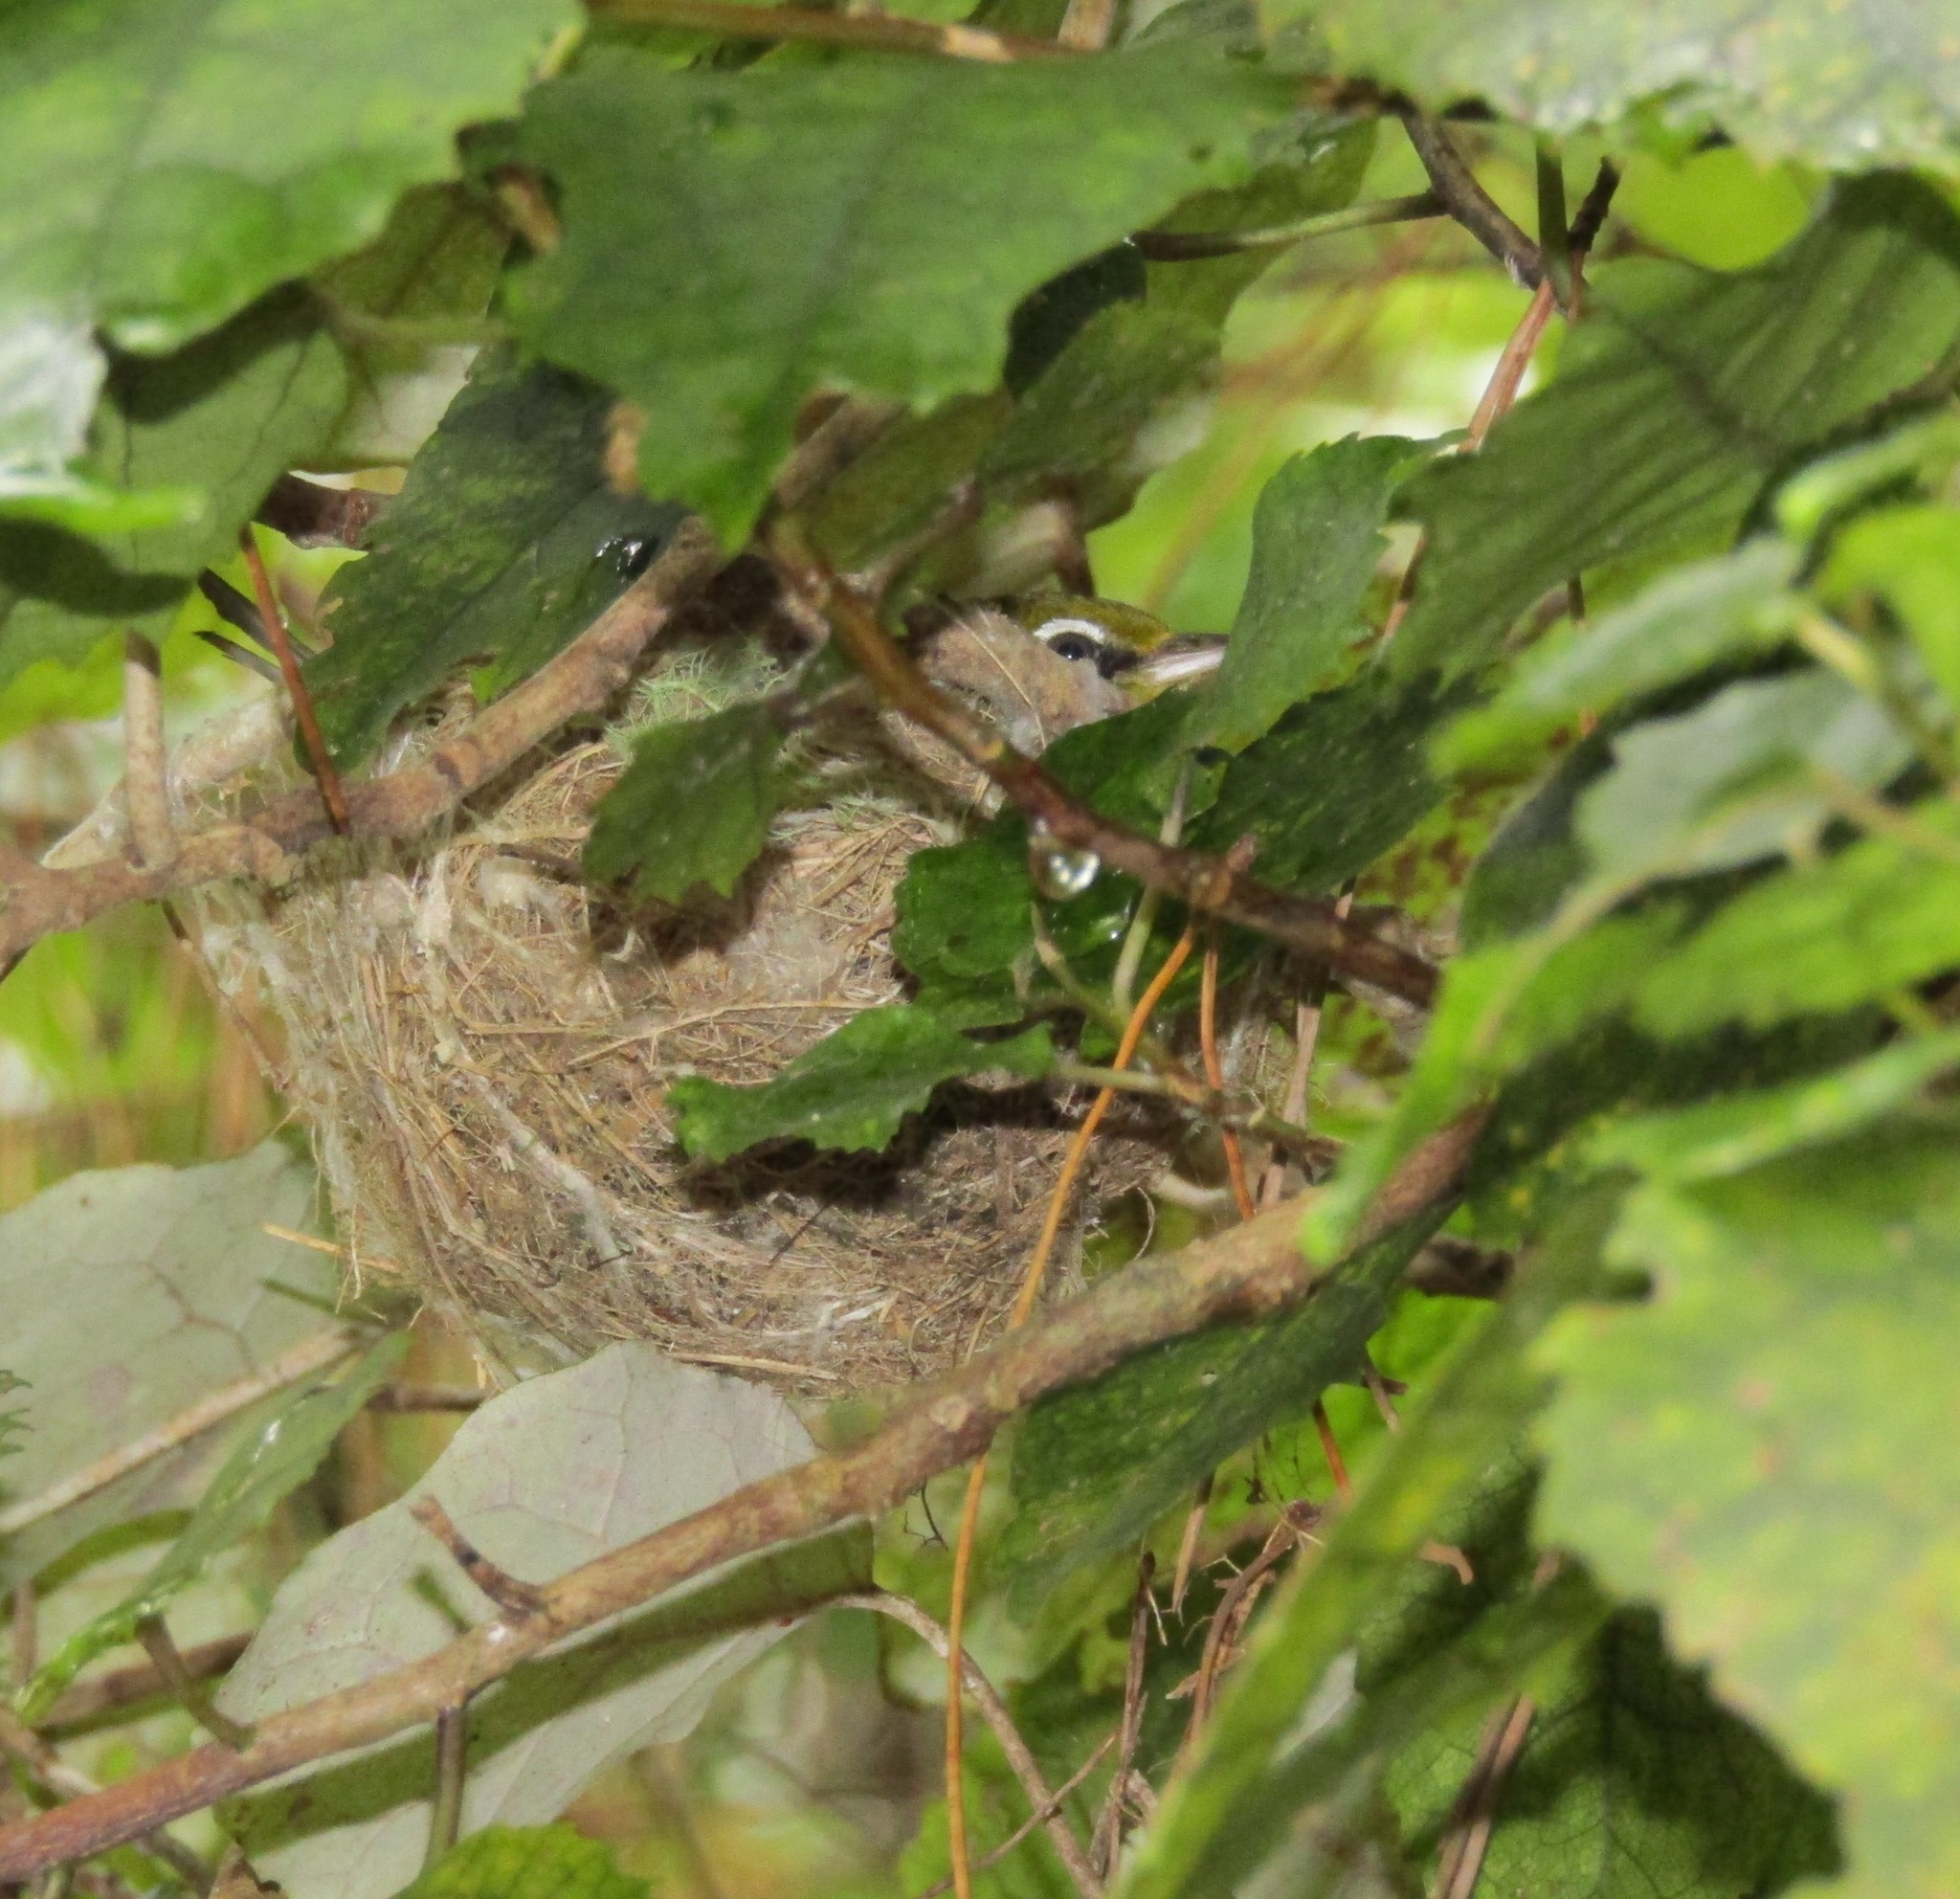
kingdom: Animalia
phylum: Chordata
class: Aves
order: Passeriformes
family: Zosteropidae
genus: Zosterops
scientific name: Zosterops lateralis
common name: Silvereye
